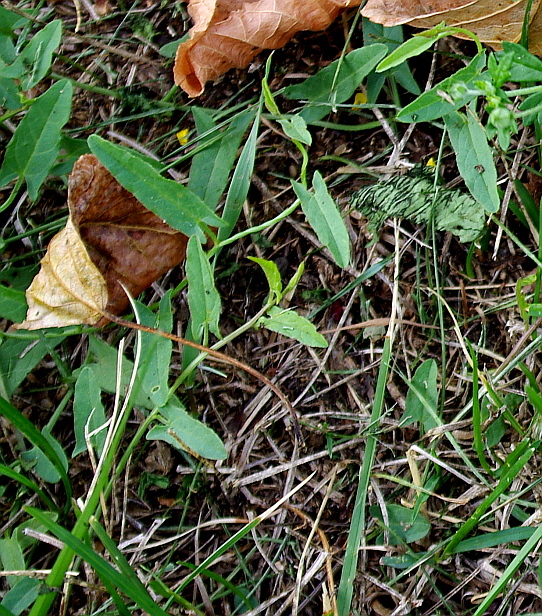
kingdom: Plantae
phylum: Tracheophyta
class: Magnoliopsida
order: Solanales
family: Convolvulaceae
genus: Convolvulus
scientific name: Convolvulus arvensis
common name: Field bindweed
